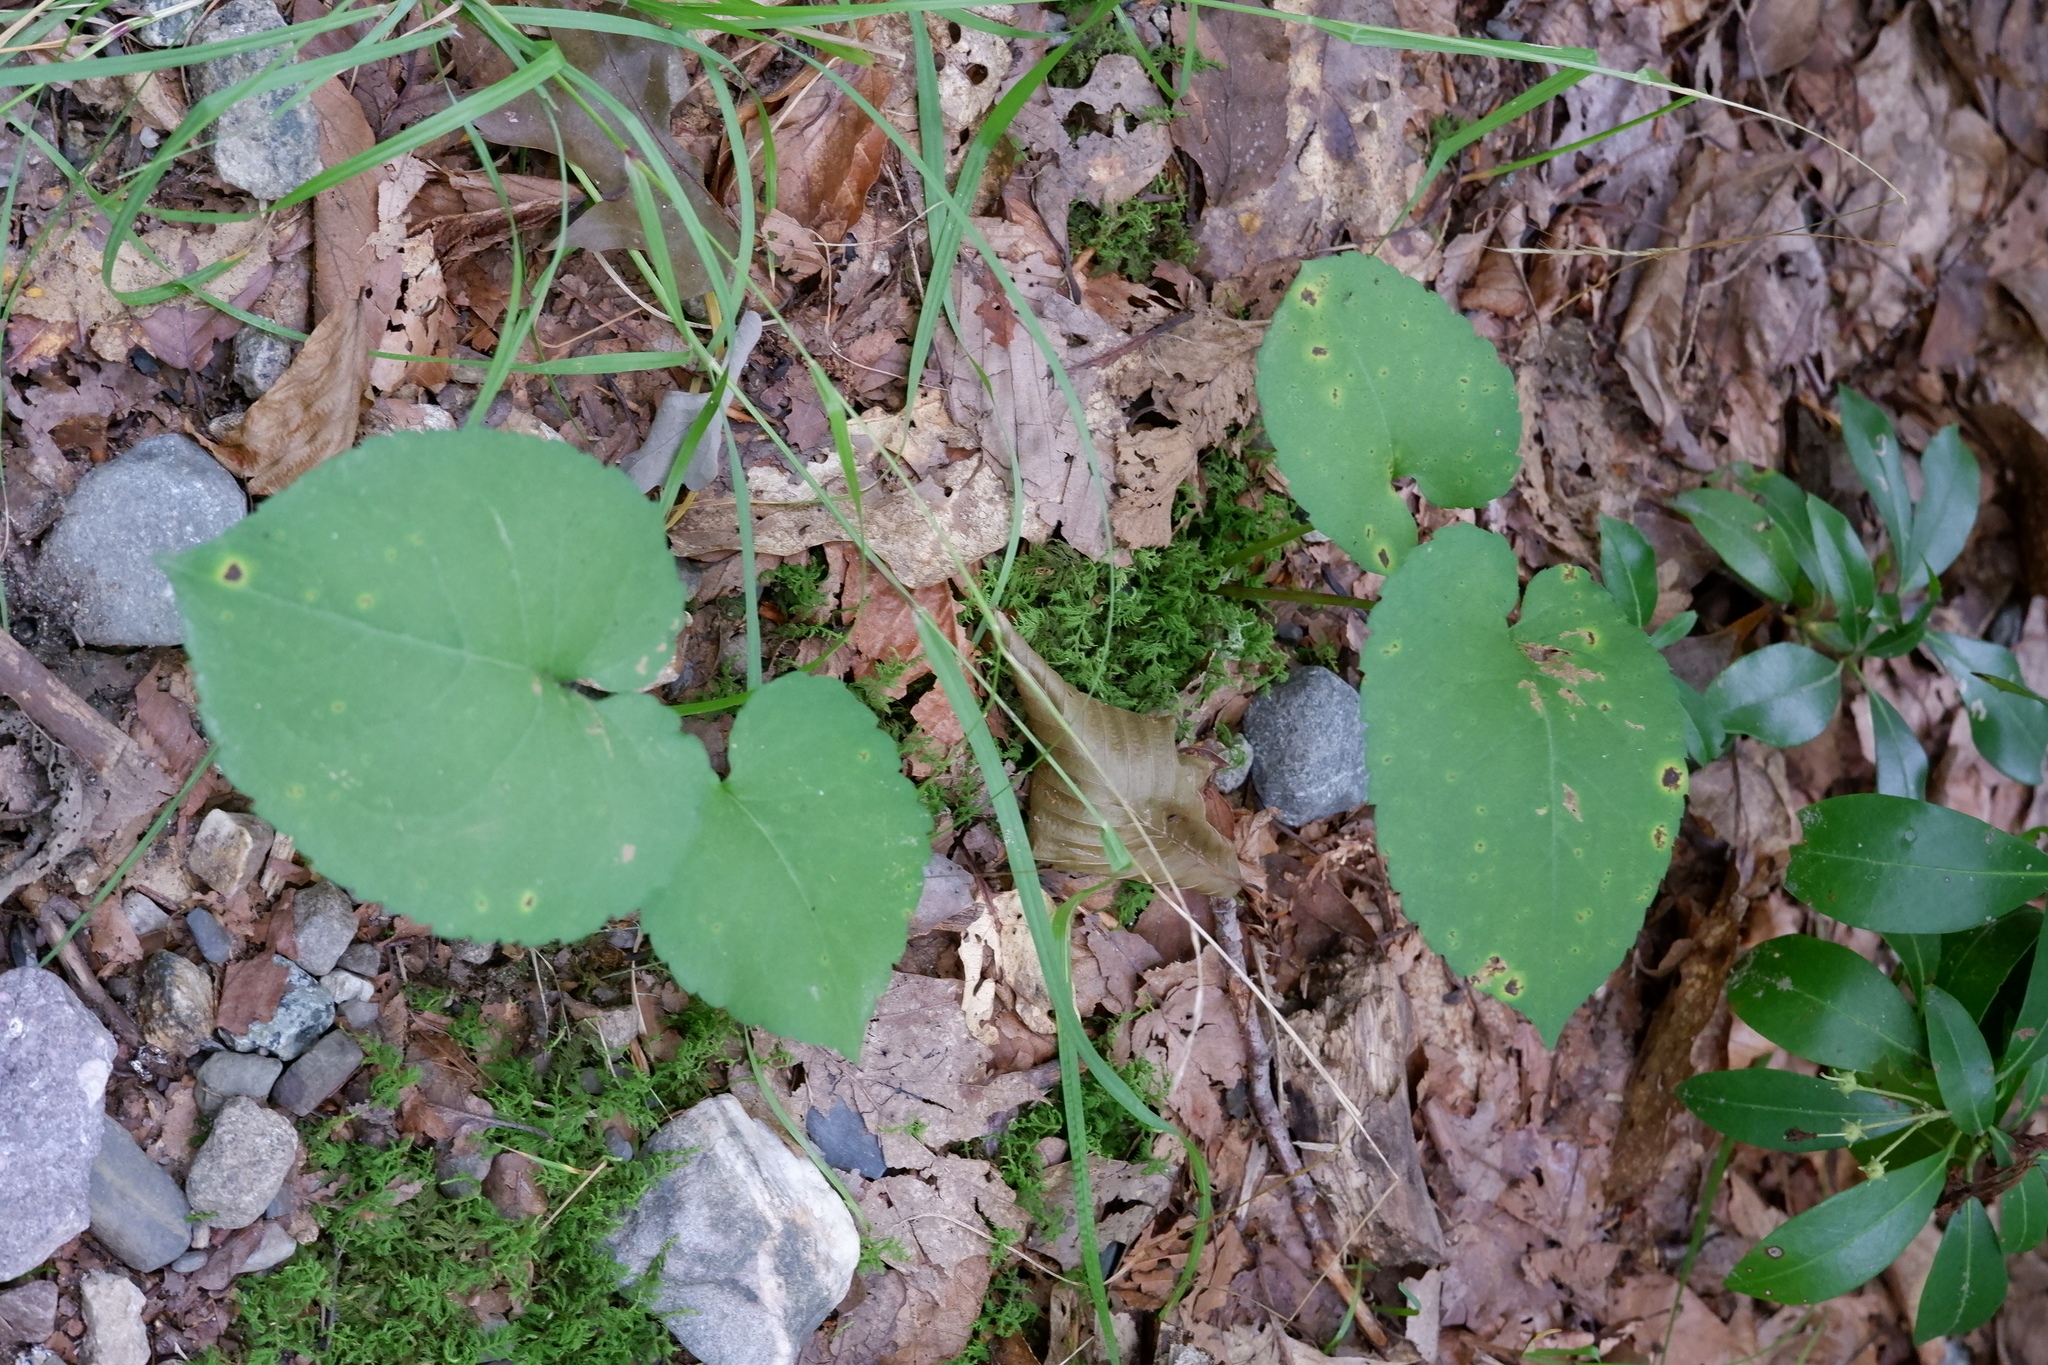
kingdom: Plantae
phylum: Tracheophyta
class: Magnoliopsida
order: Asterales
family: Asteraceae
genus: Eurybia
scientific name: Eurybia macrophylla
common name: Big-leaved aster
